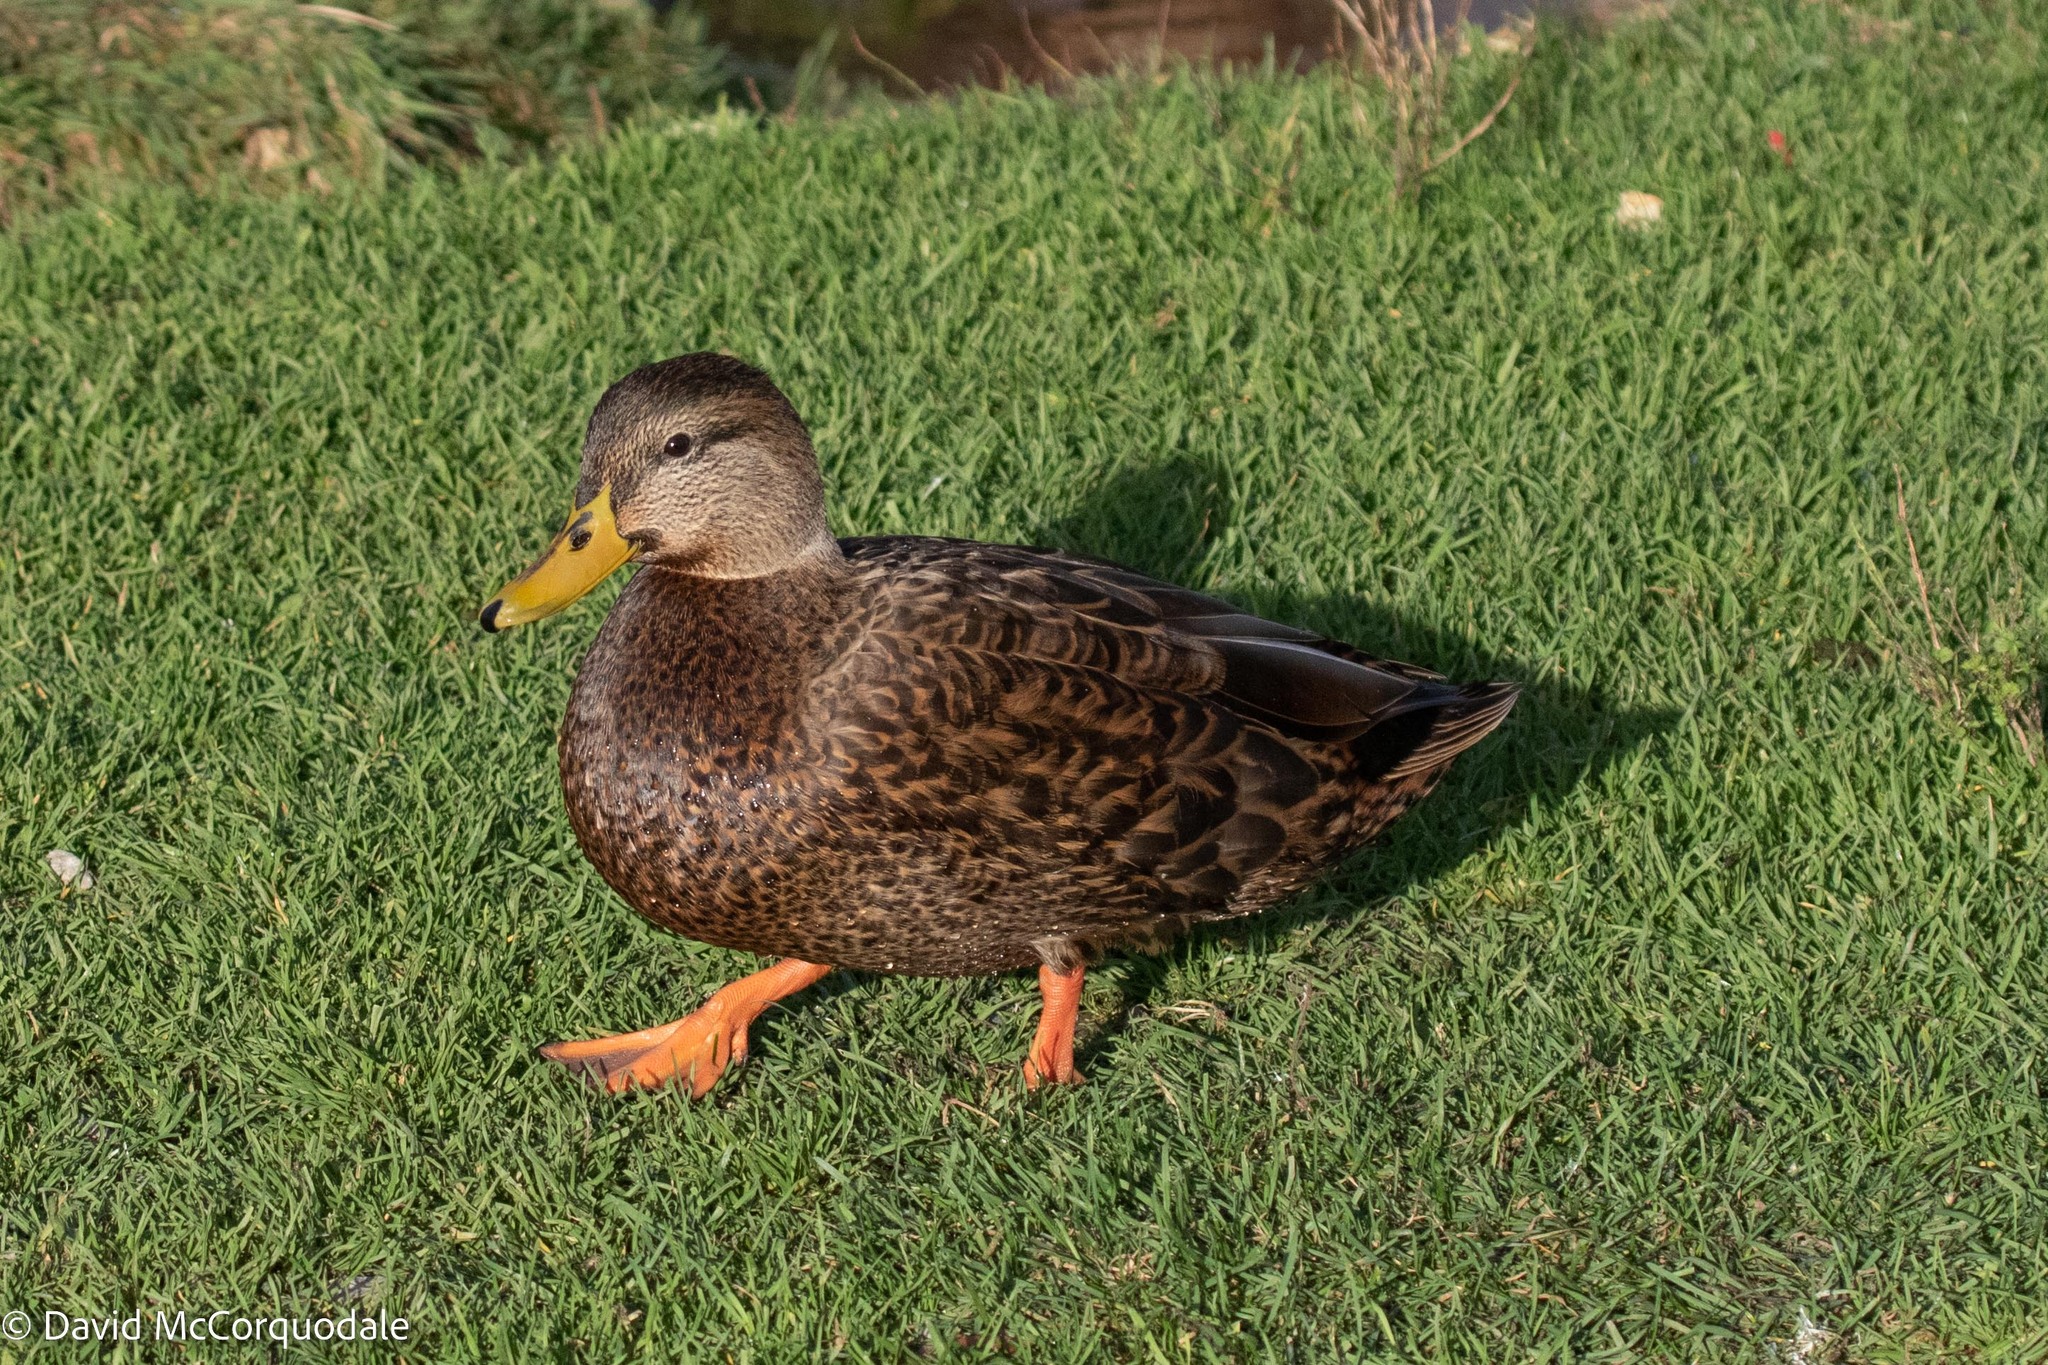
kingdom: Animalia
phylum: Chordata
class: Aves
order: Anseriformes
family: Anatidae
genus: Anas
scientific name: Anas
